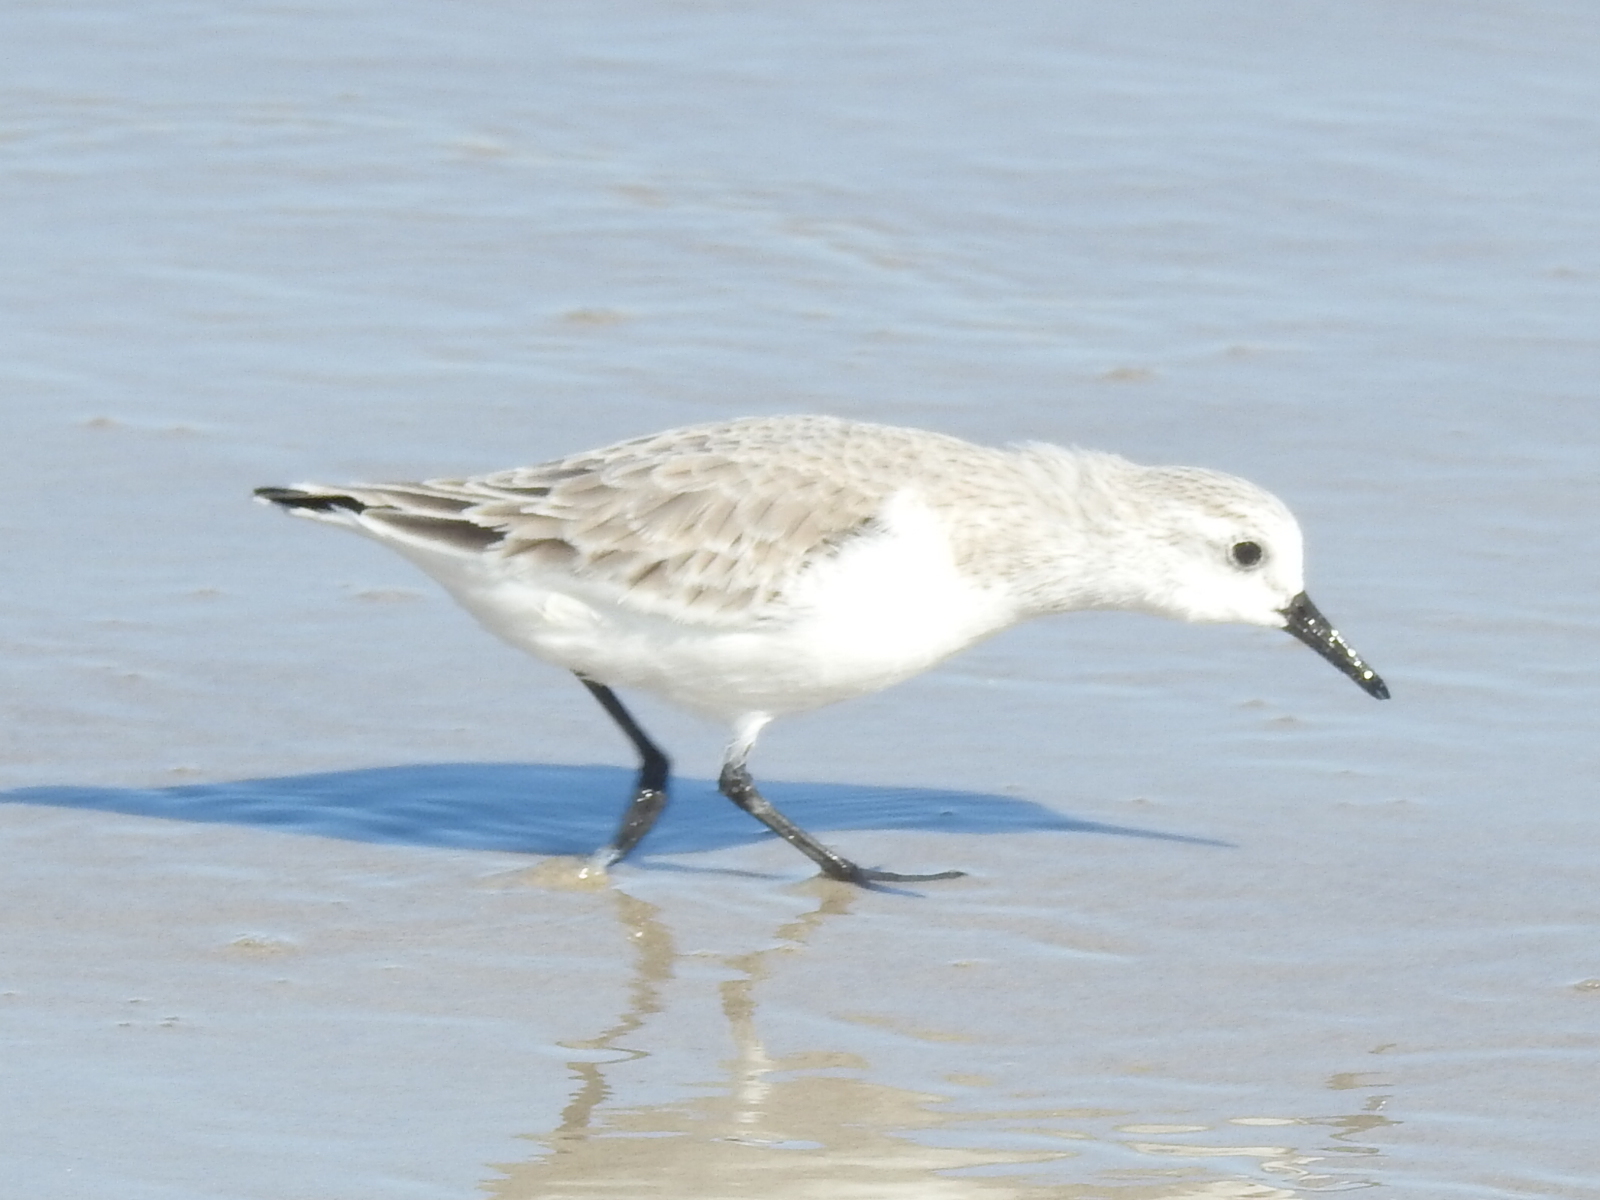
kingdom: Animalia
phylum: Chordata
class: Aves
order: Charadriiformes
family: Scolopacidae
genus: Calidris
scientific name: Calidris alba
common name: Sanderling
